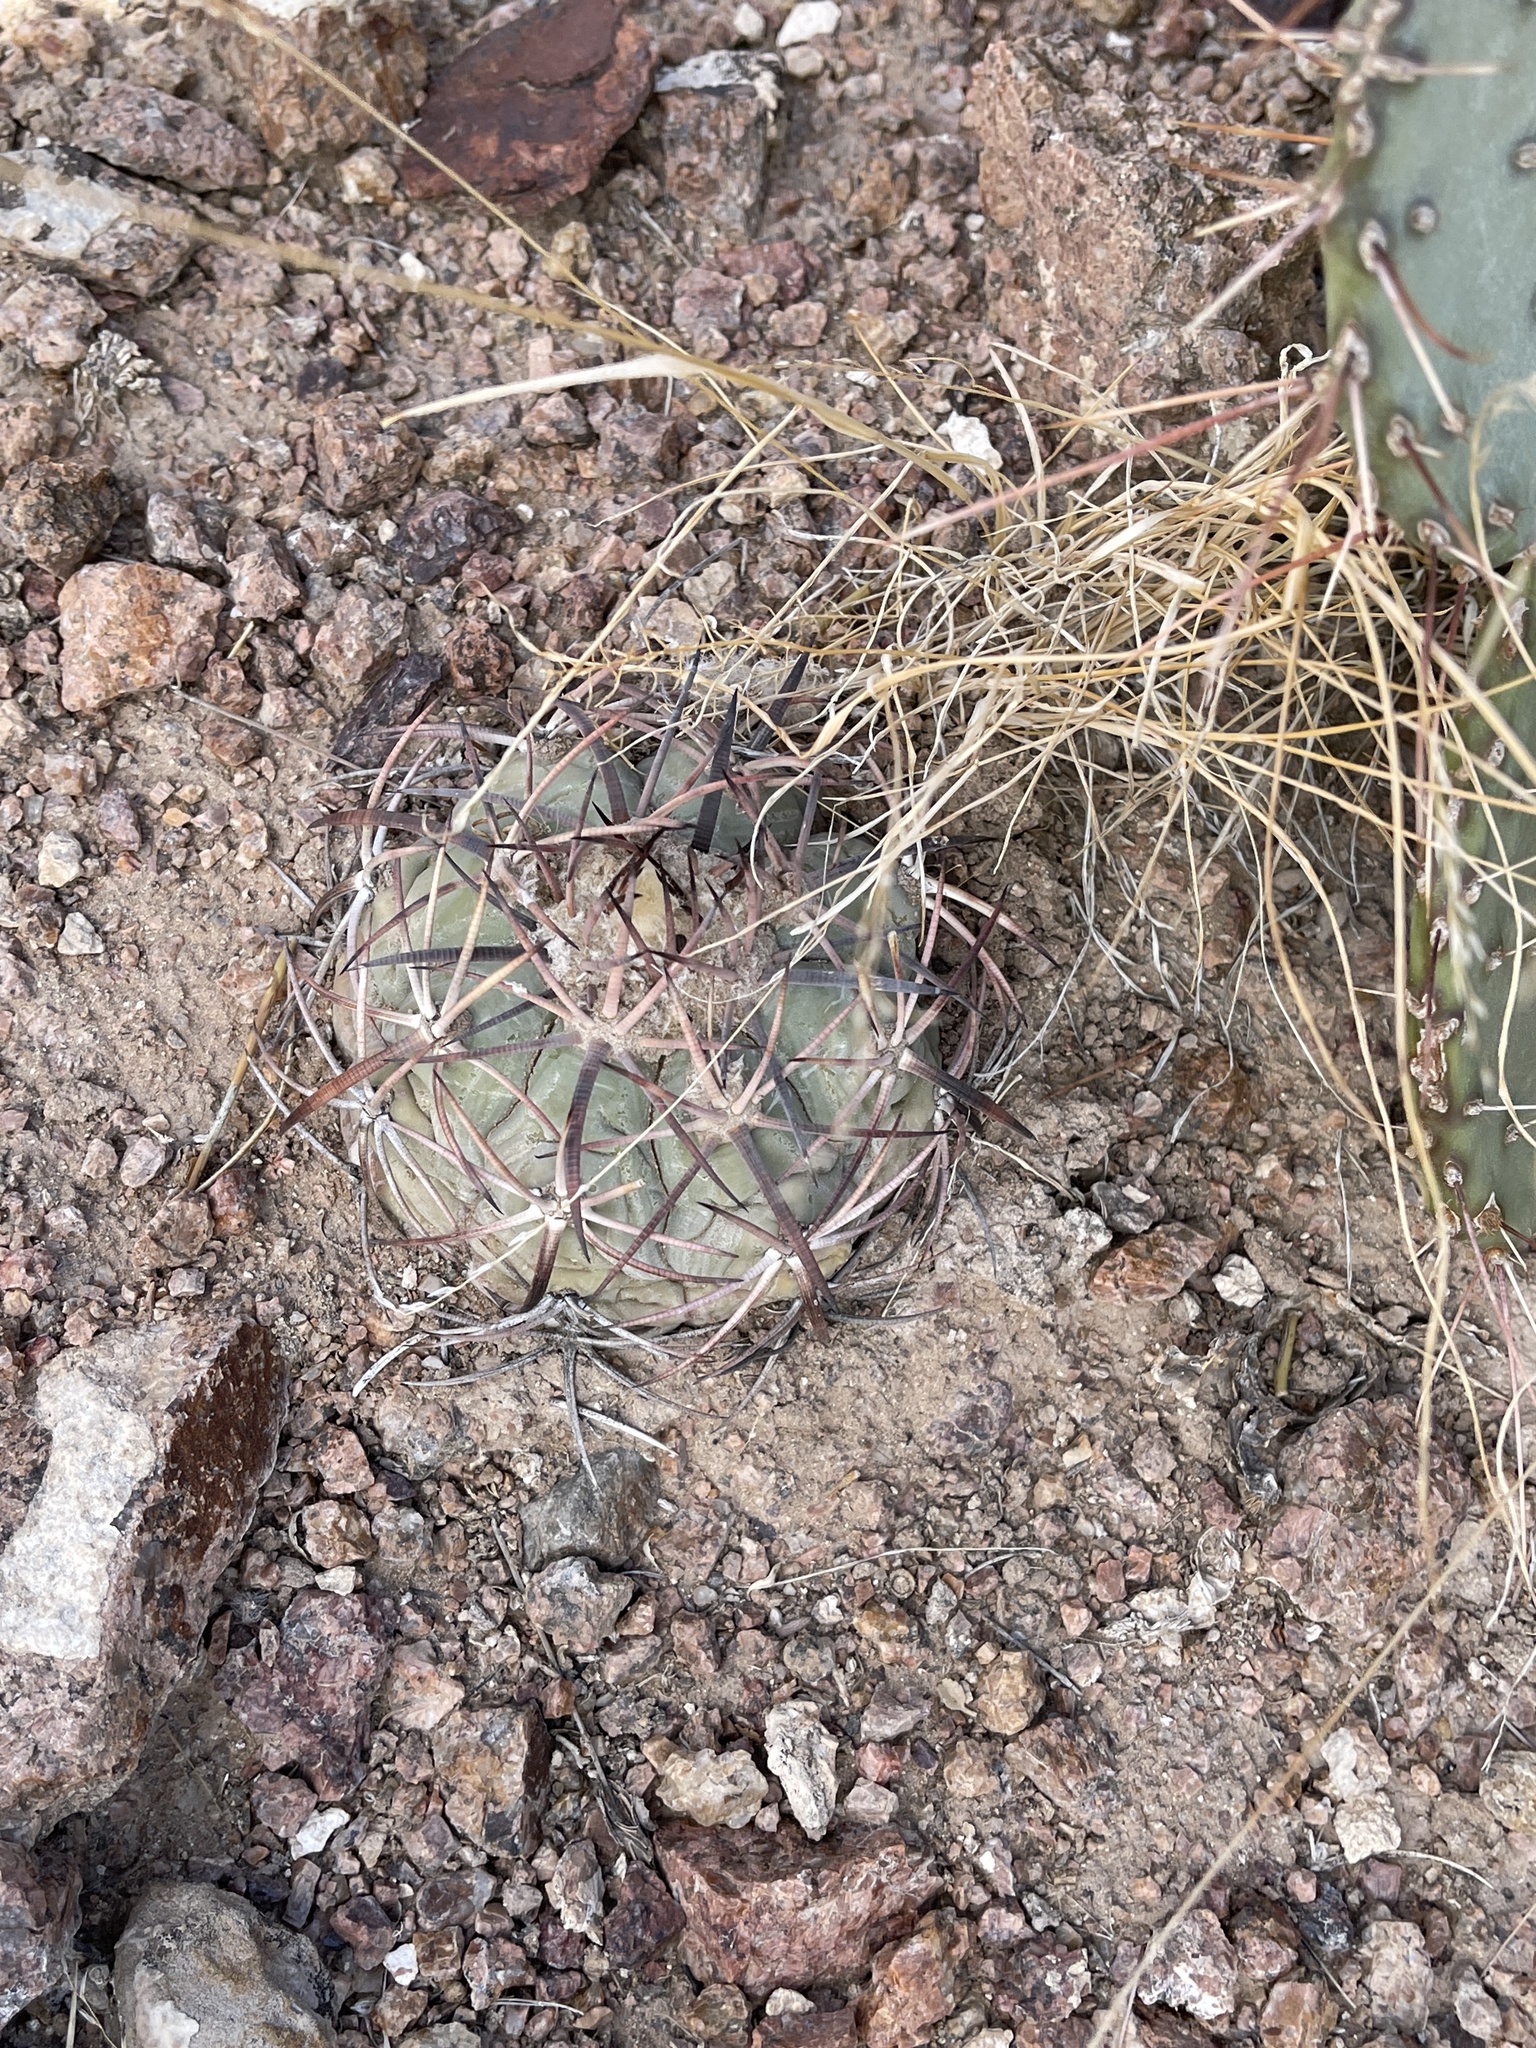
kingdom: Plantae
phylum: Tracheophyta
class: Magnoliopsida
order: Caryophyllales
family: Cactaceae
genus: Echinocactus
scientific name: Echinocactus horizonthalonius
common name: Devilshead
